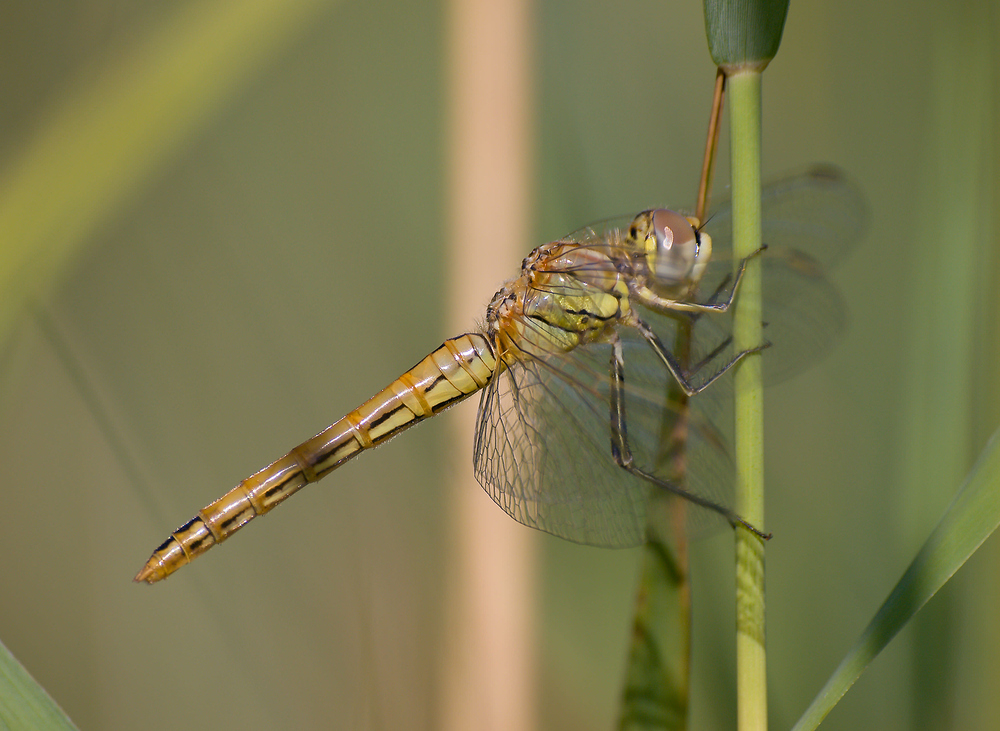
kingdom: Animalia
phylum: Arthropoda
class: Insecta
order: Odonata
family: Libellulidae
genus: Sympetrum
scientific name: Sympetrum fonscolombii
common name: Red-veined darter
